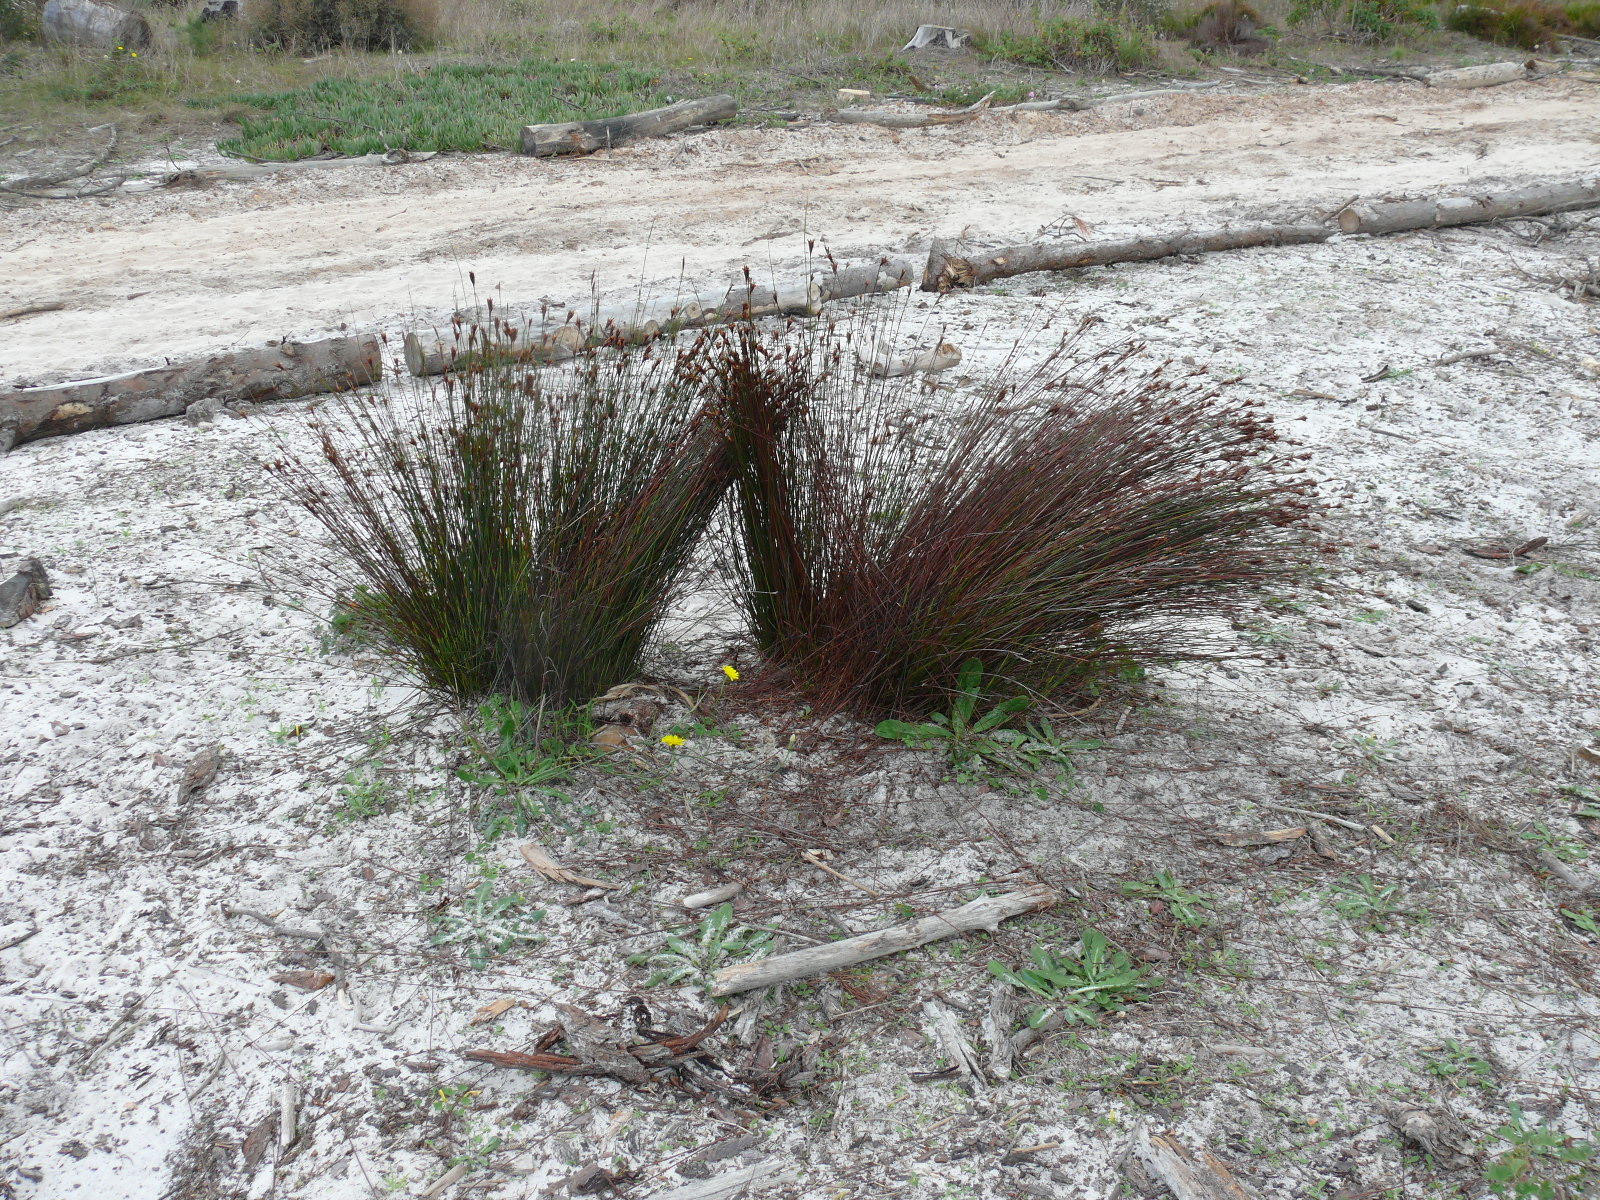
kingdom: Plantae
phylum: Tracheophyta
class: Liliopsida
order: Poales
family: Restionaceae
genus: Staberoha
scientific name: Staberoha distachyos
